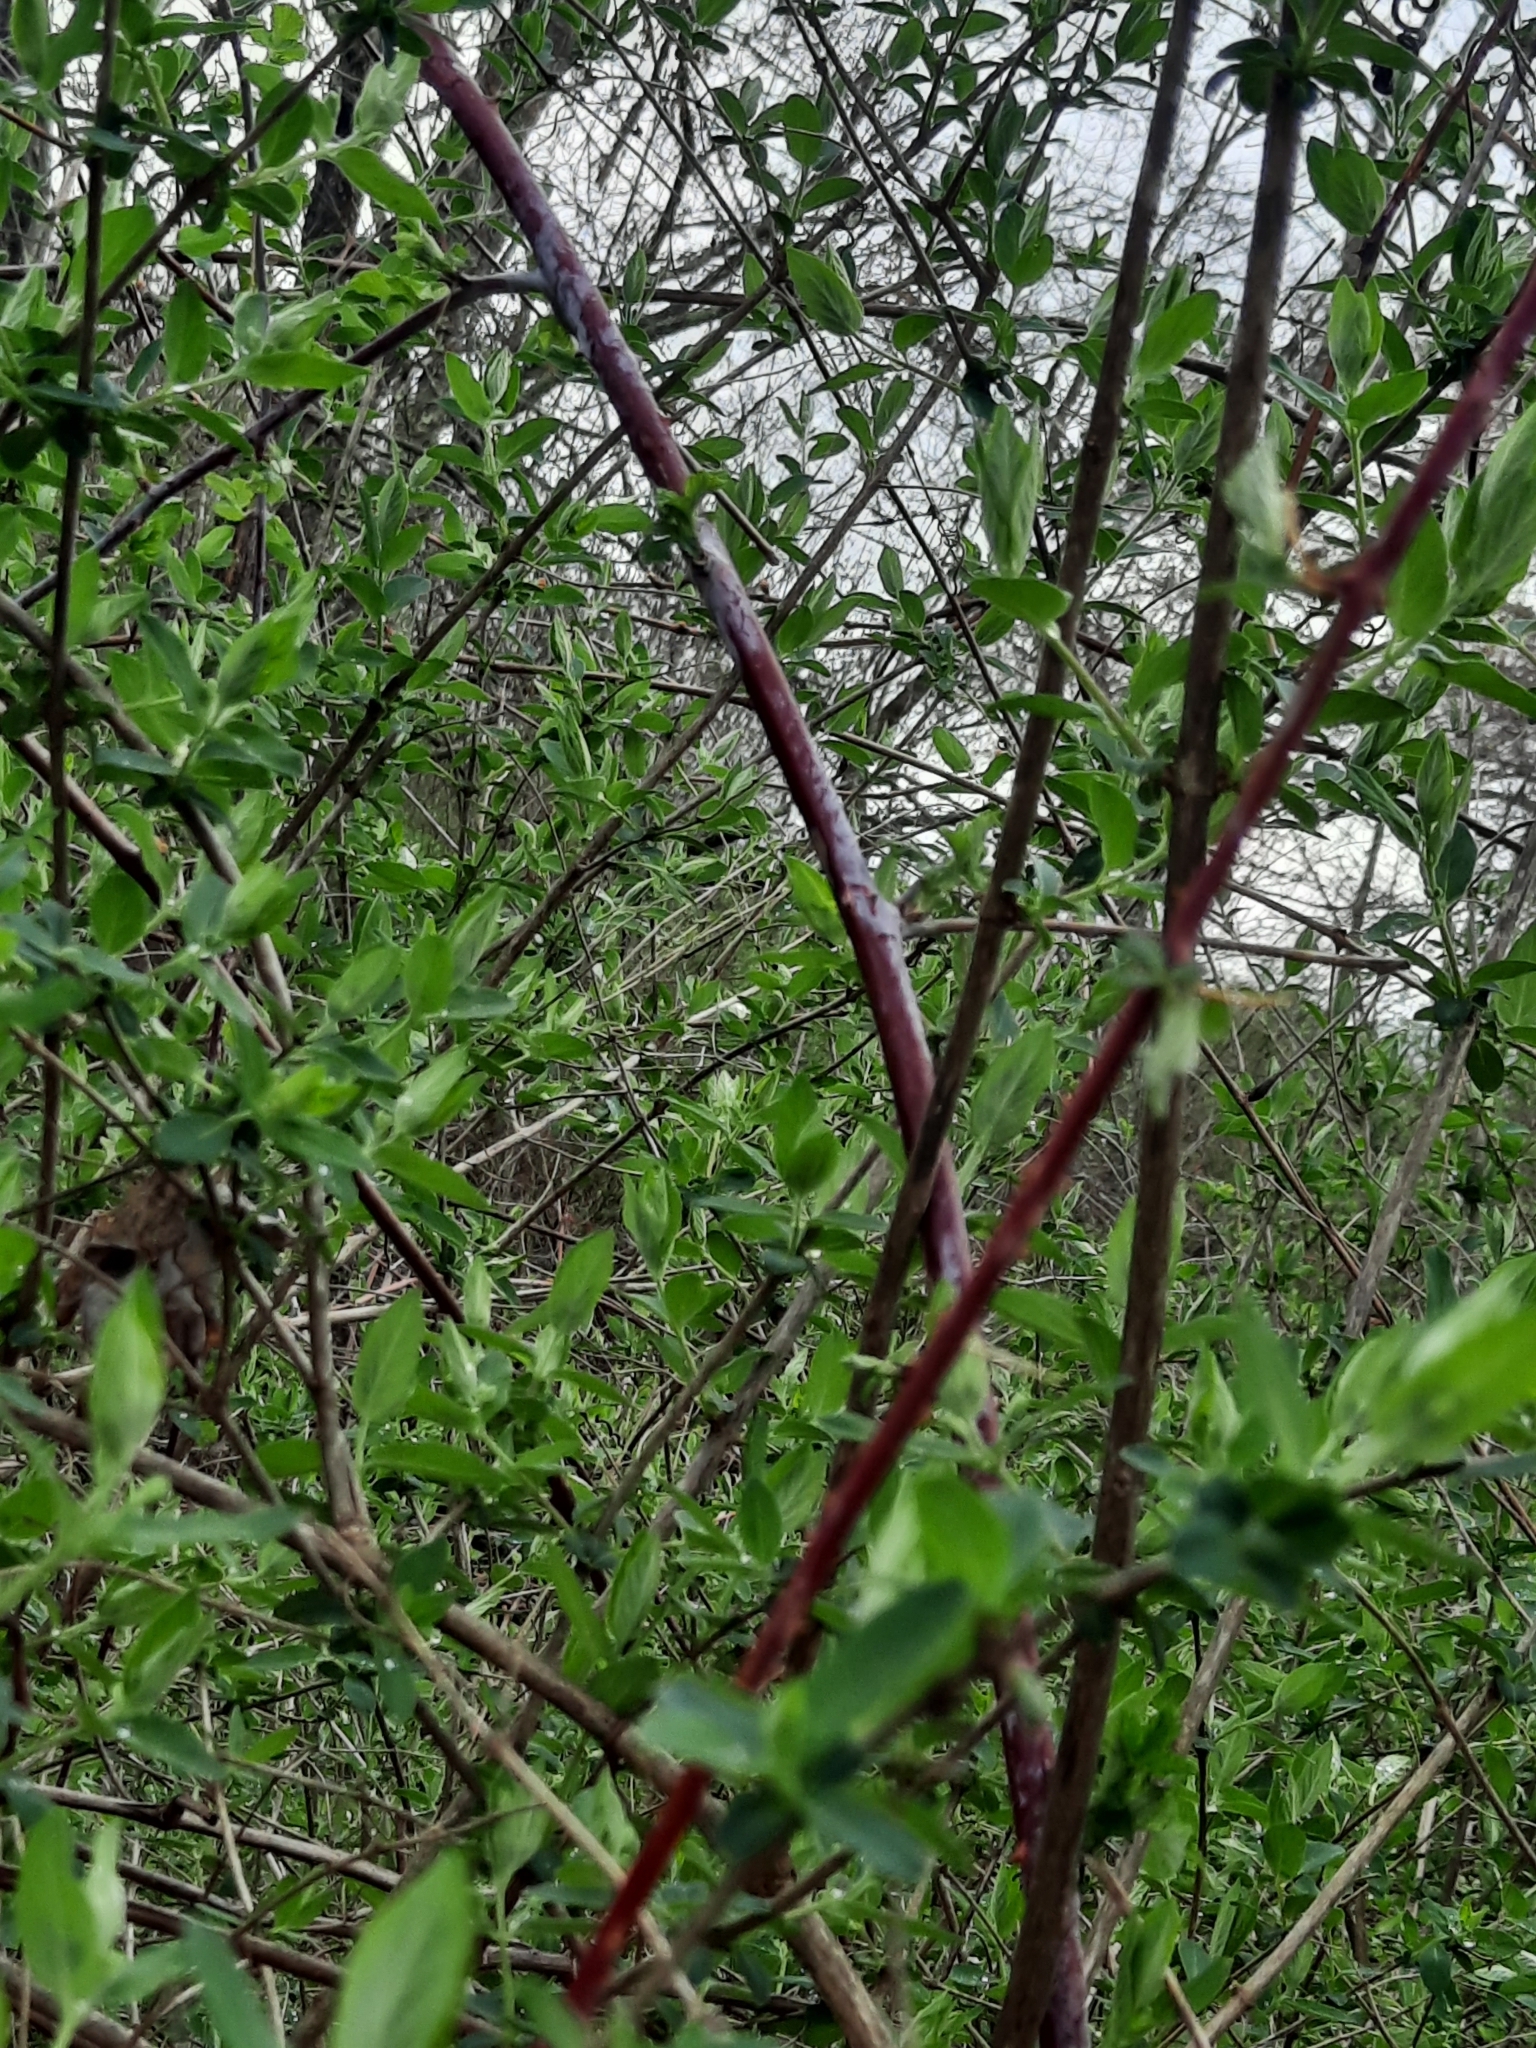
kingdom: Plantae
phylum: Tracheophyta
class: Magnoliopsida
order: Rosales
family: Rosaceae
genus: Rubus
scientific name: Rubus occidentalis
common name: Black raspberry
